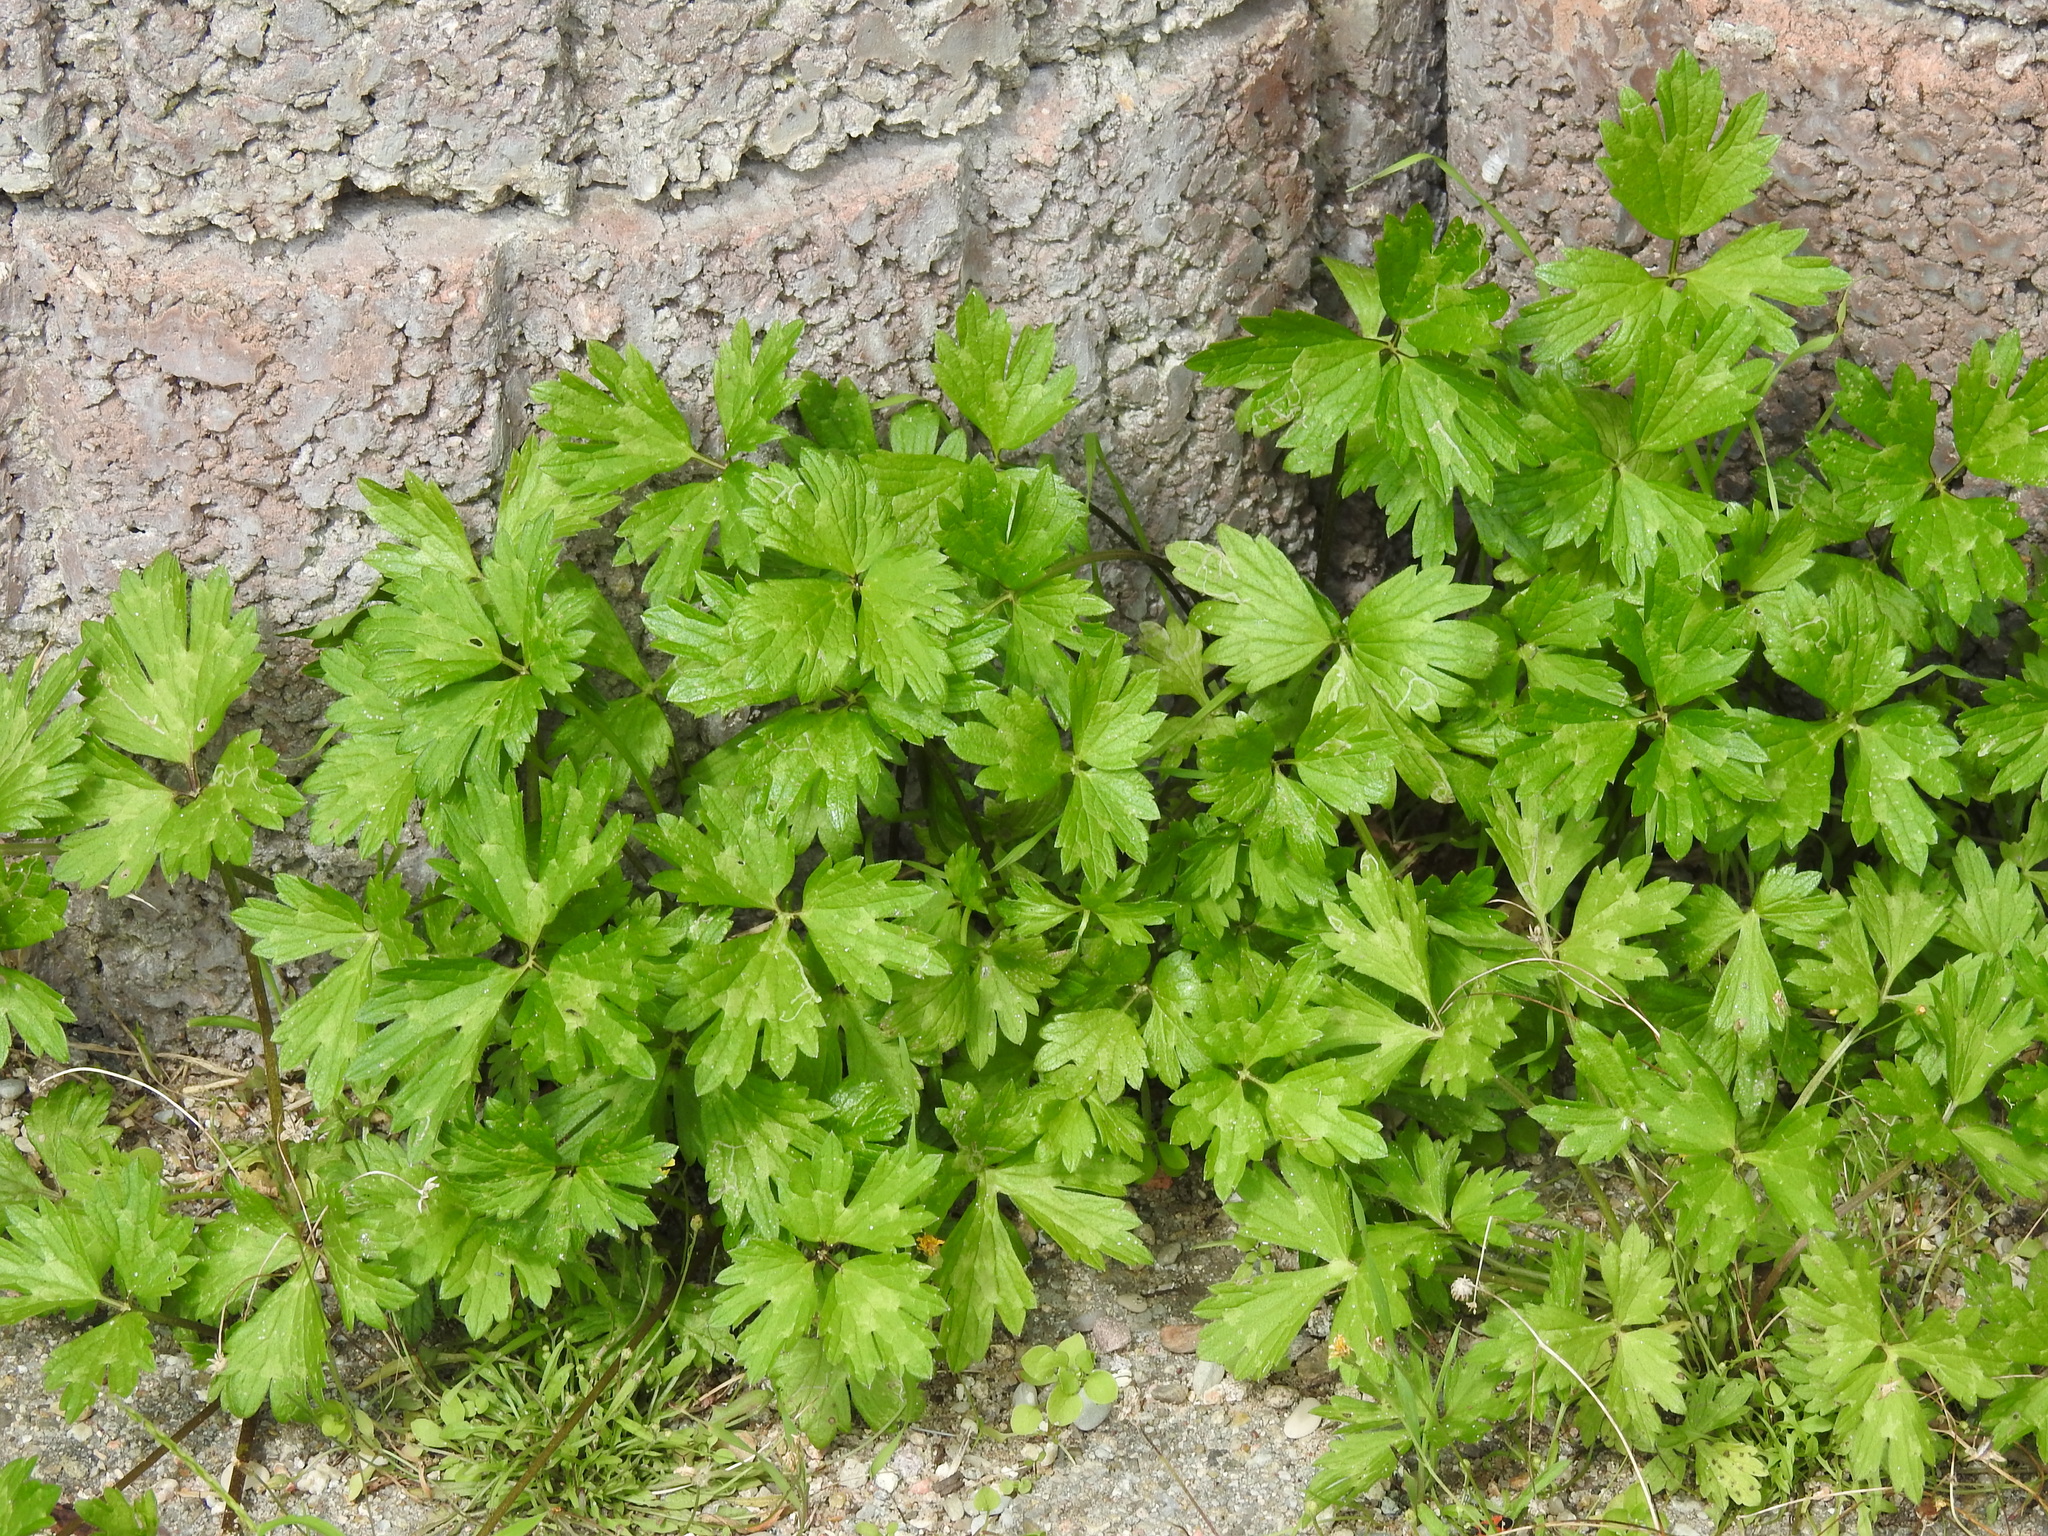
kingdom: Plantae
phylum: Tracheophyta
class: Magnoliopsida
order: Ranunculales
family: Ranunculaceae
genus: Ranunculus
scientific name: Ranunculus repens
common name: Creeping buttercup
